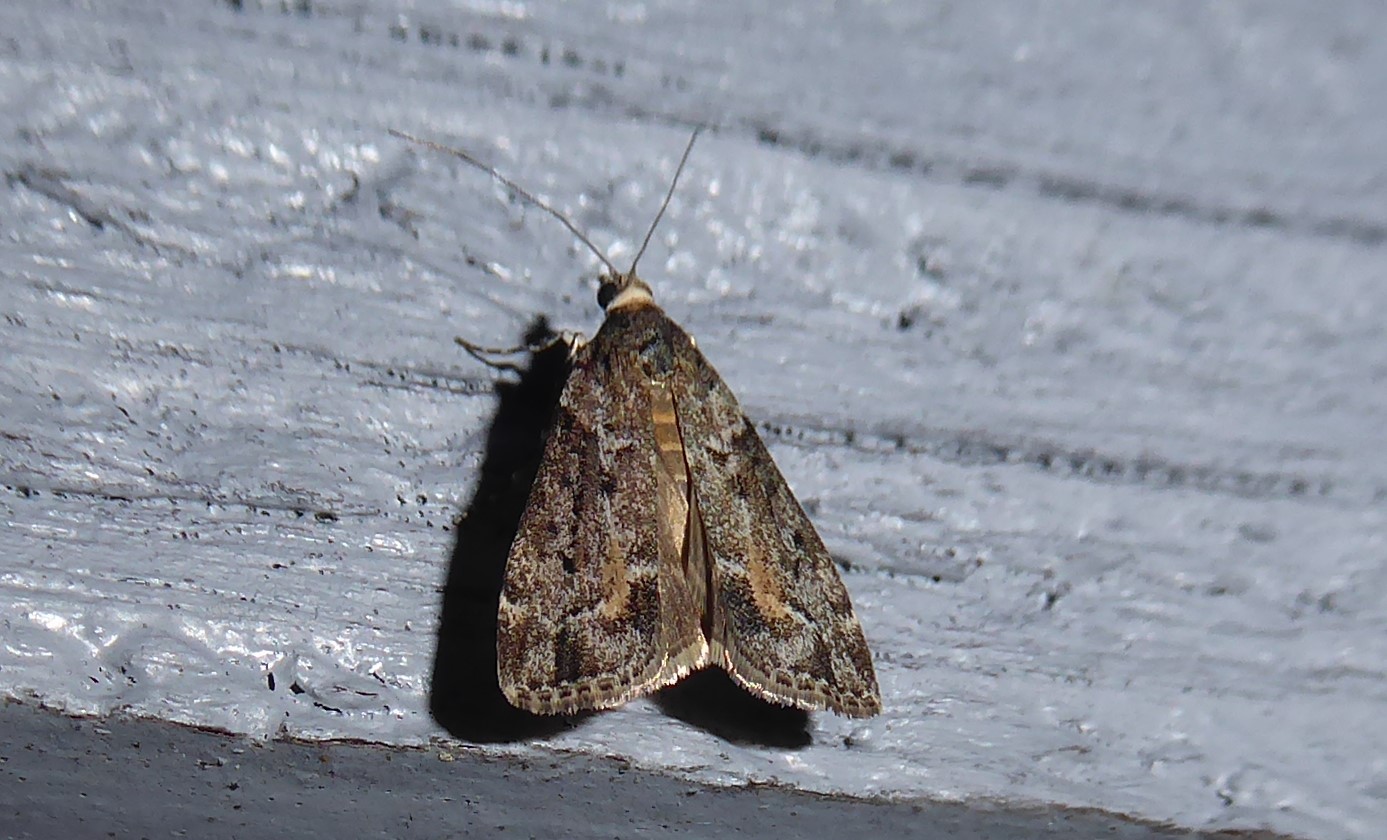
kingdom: Animalia
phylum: Arthropoda
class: Insecta
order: Lepidoptera
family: Crambidae
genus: Eudonia
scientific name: Eudonia submarginalis
